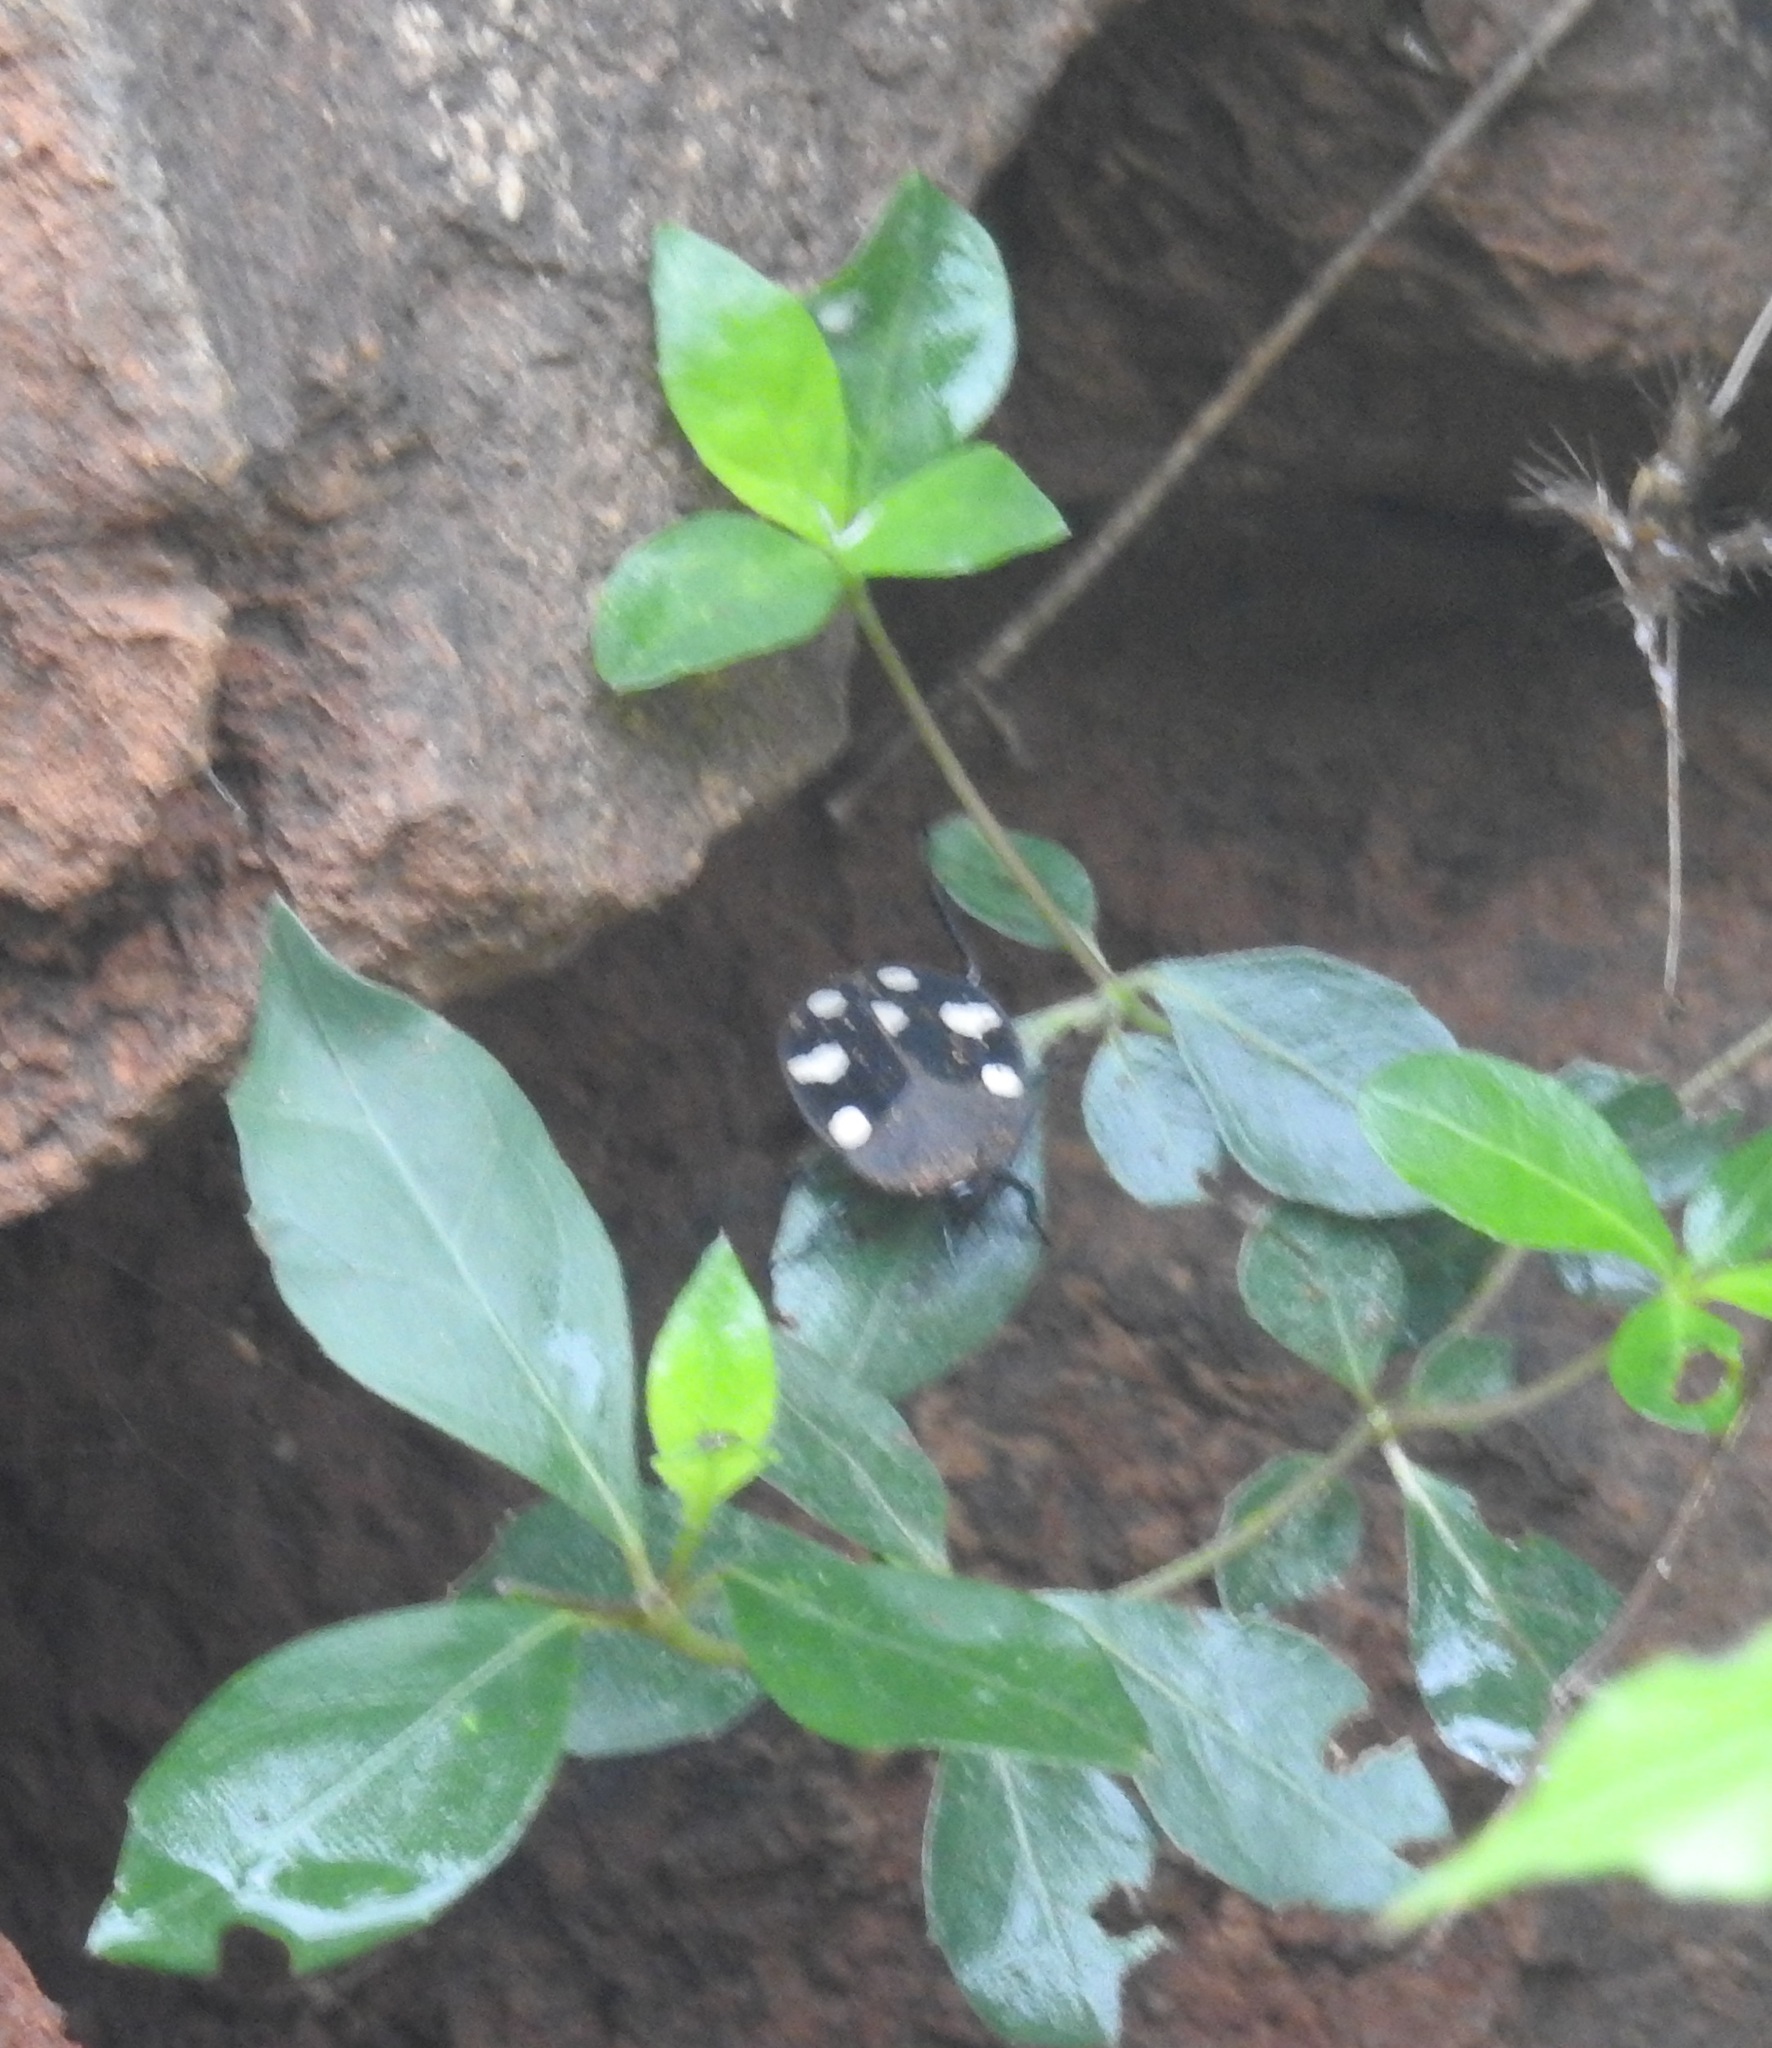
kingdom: Animalia
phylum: Arthropoda
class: Insecta
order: Blattodea
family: Corydiidae
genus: Therea
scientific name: Therea petiveriana
